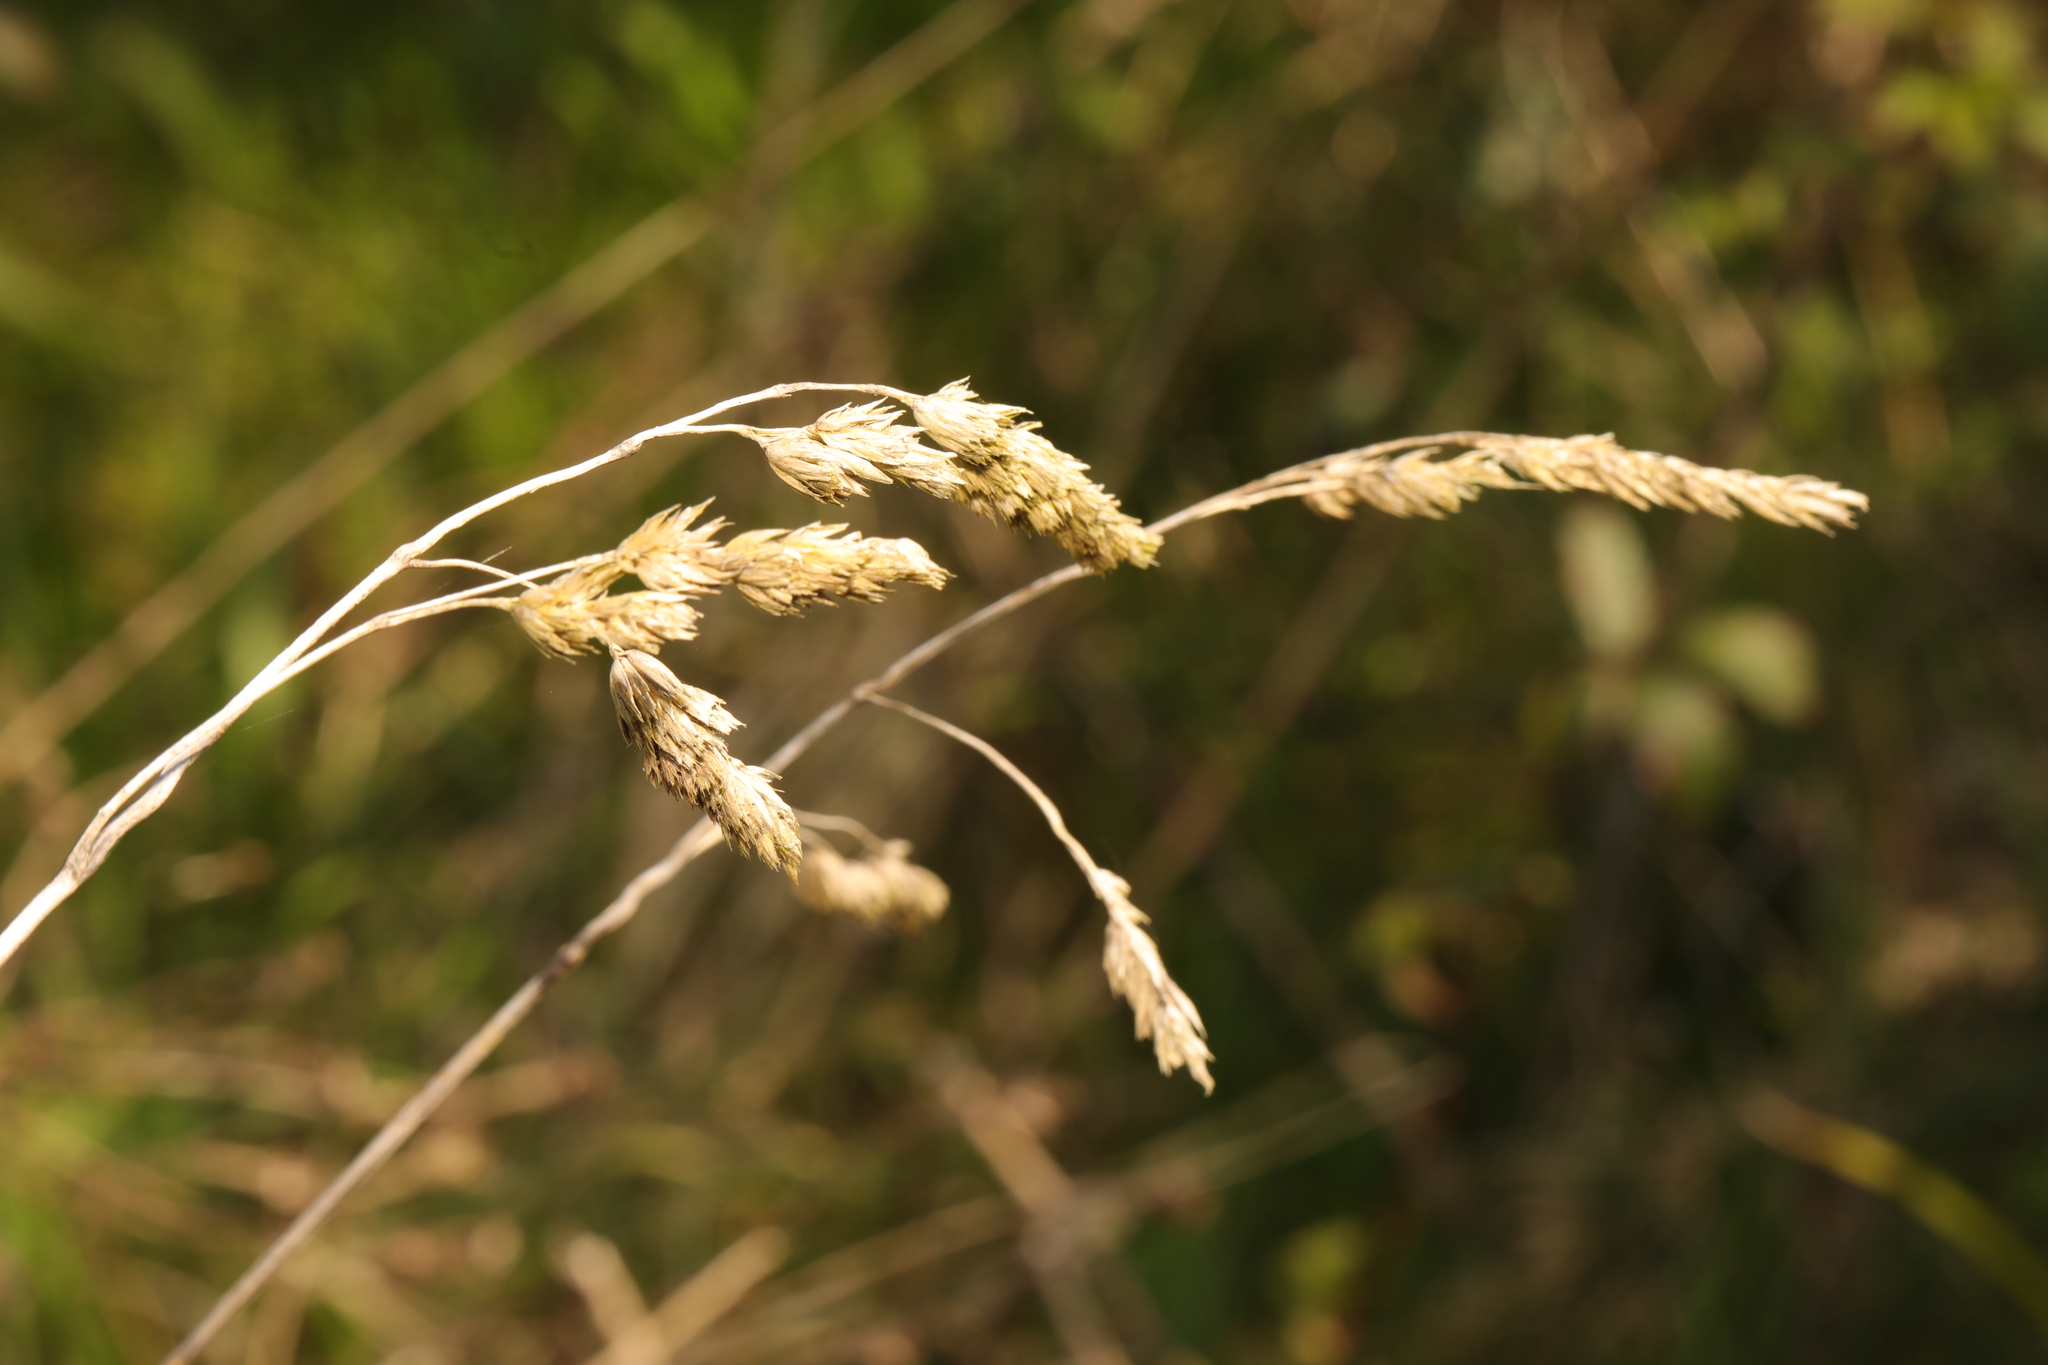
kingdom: Plantae
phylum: Tracheophyta
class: Liliopsida
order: Poales
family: Poaceae
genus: Dactylis
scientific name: Dactylis glomerata
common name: Orchardgrass
